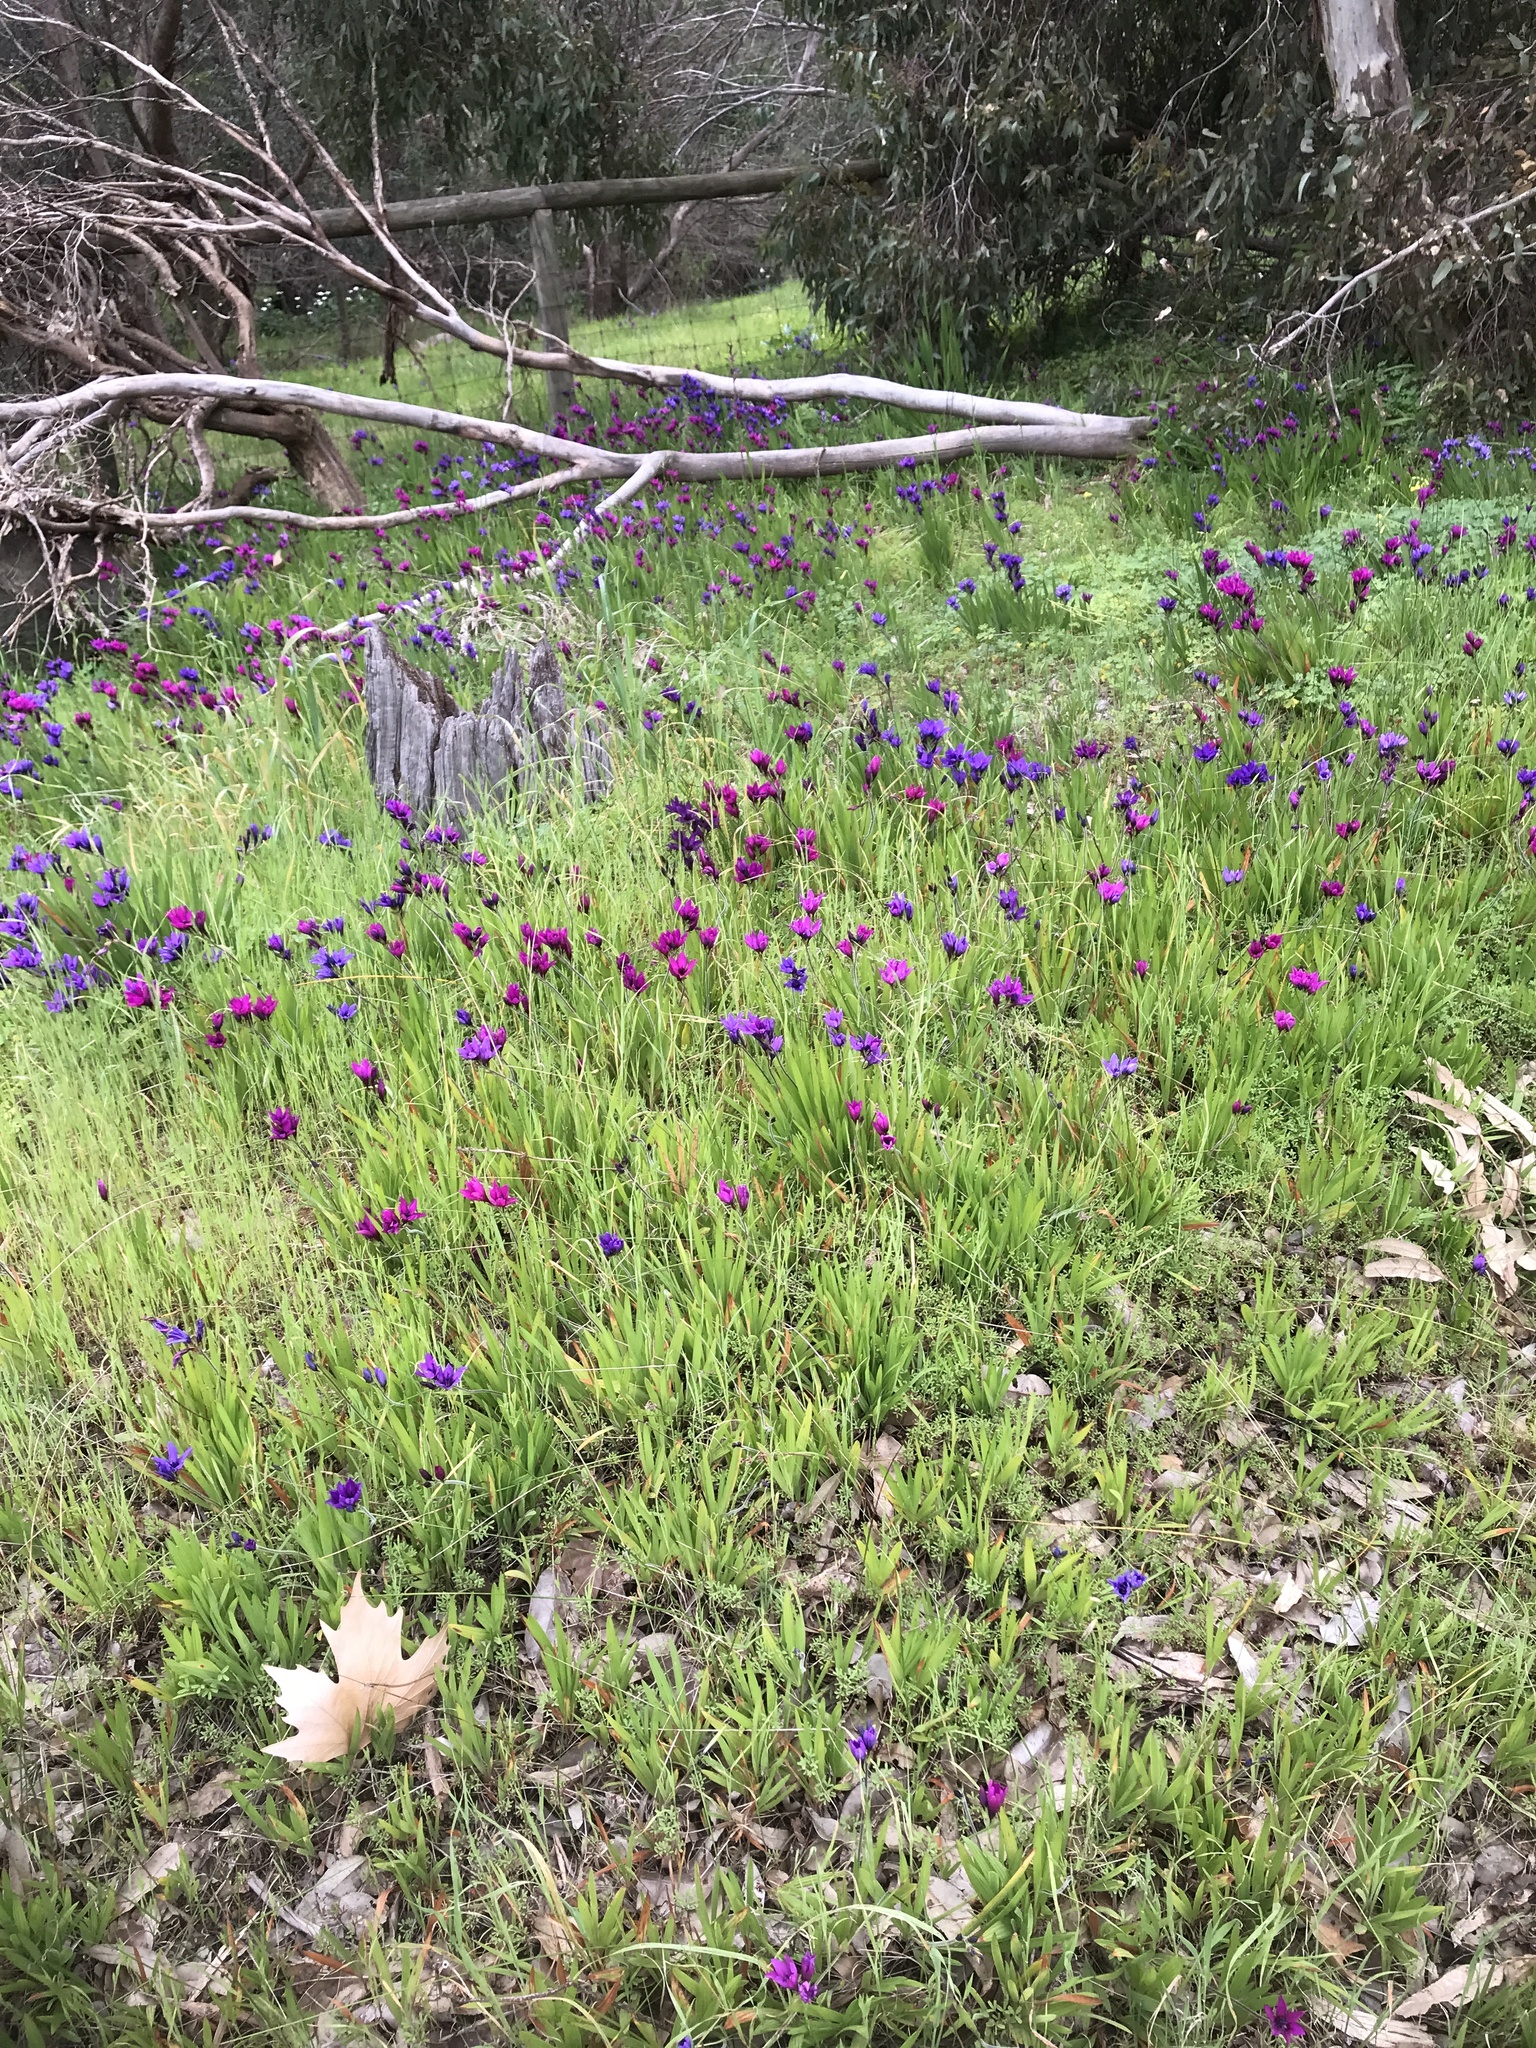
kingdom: Plantae
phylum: Tracheophyta
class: Liliopsida
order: Asparagales
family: Iridaceae
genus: Babiana
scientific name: Babiana angustifolia
